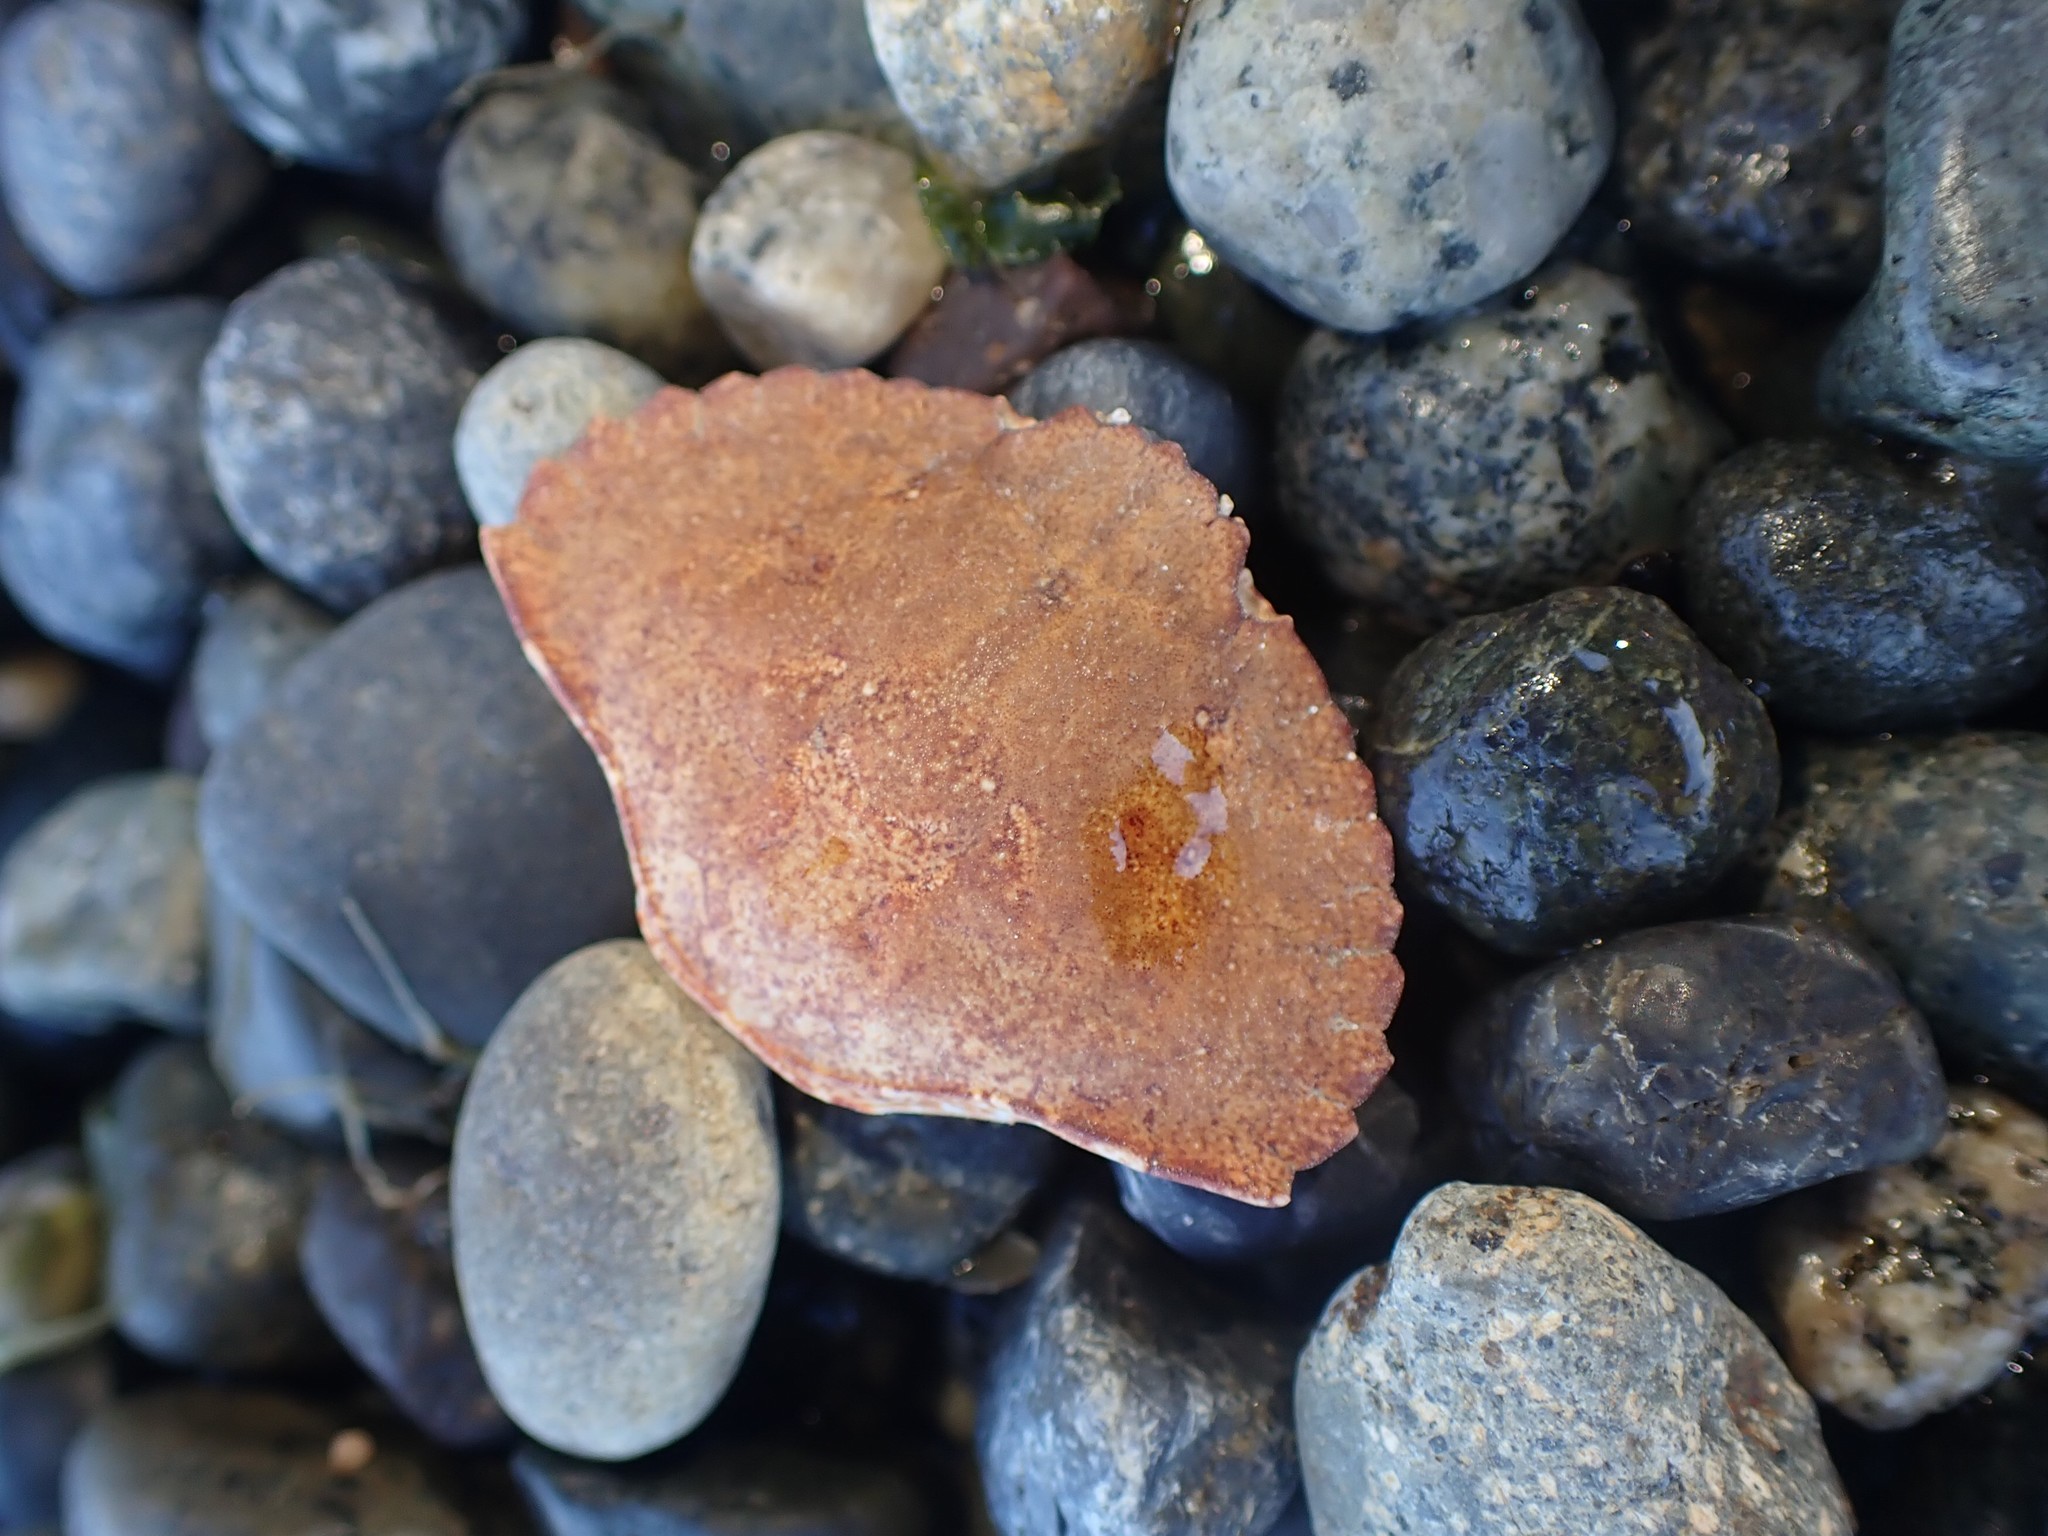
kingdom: Animalia
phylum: Arthropoda
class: Malacostraca
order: Decapoda
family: Cancridae
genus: Cancer
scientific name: Cancer productus
